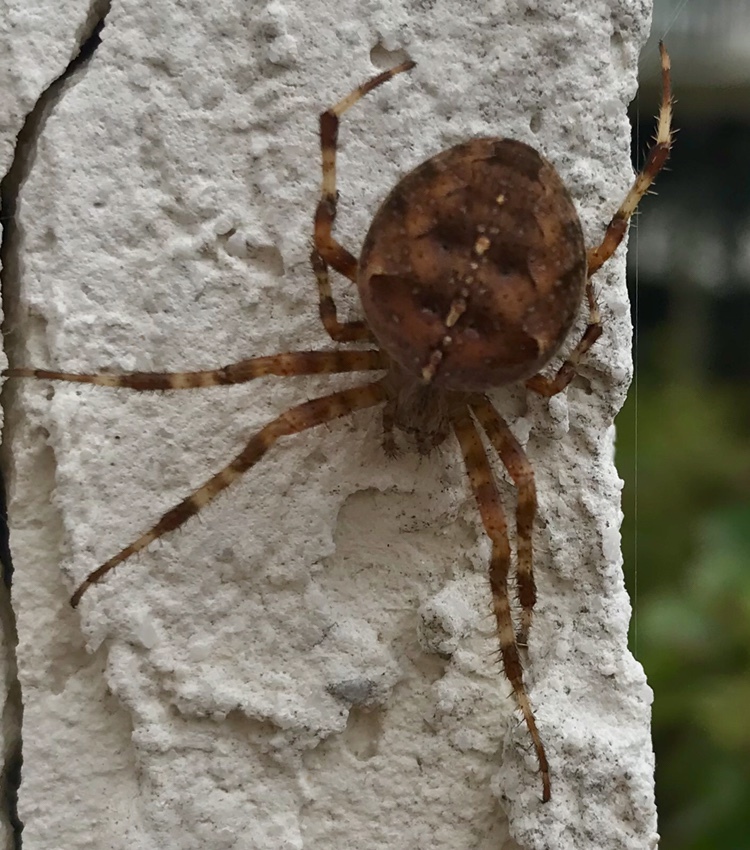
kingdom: Animalia
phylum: Arthropoda
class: Arachnida
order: Araneae
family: Araneidae
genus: Araneus
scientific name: Araneus diadematus
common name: Cross orbweaver
